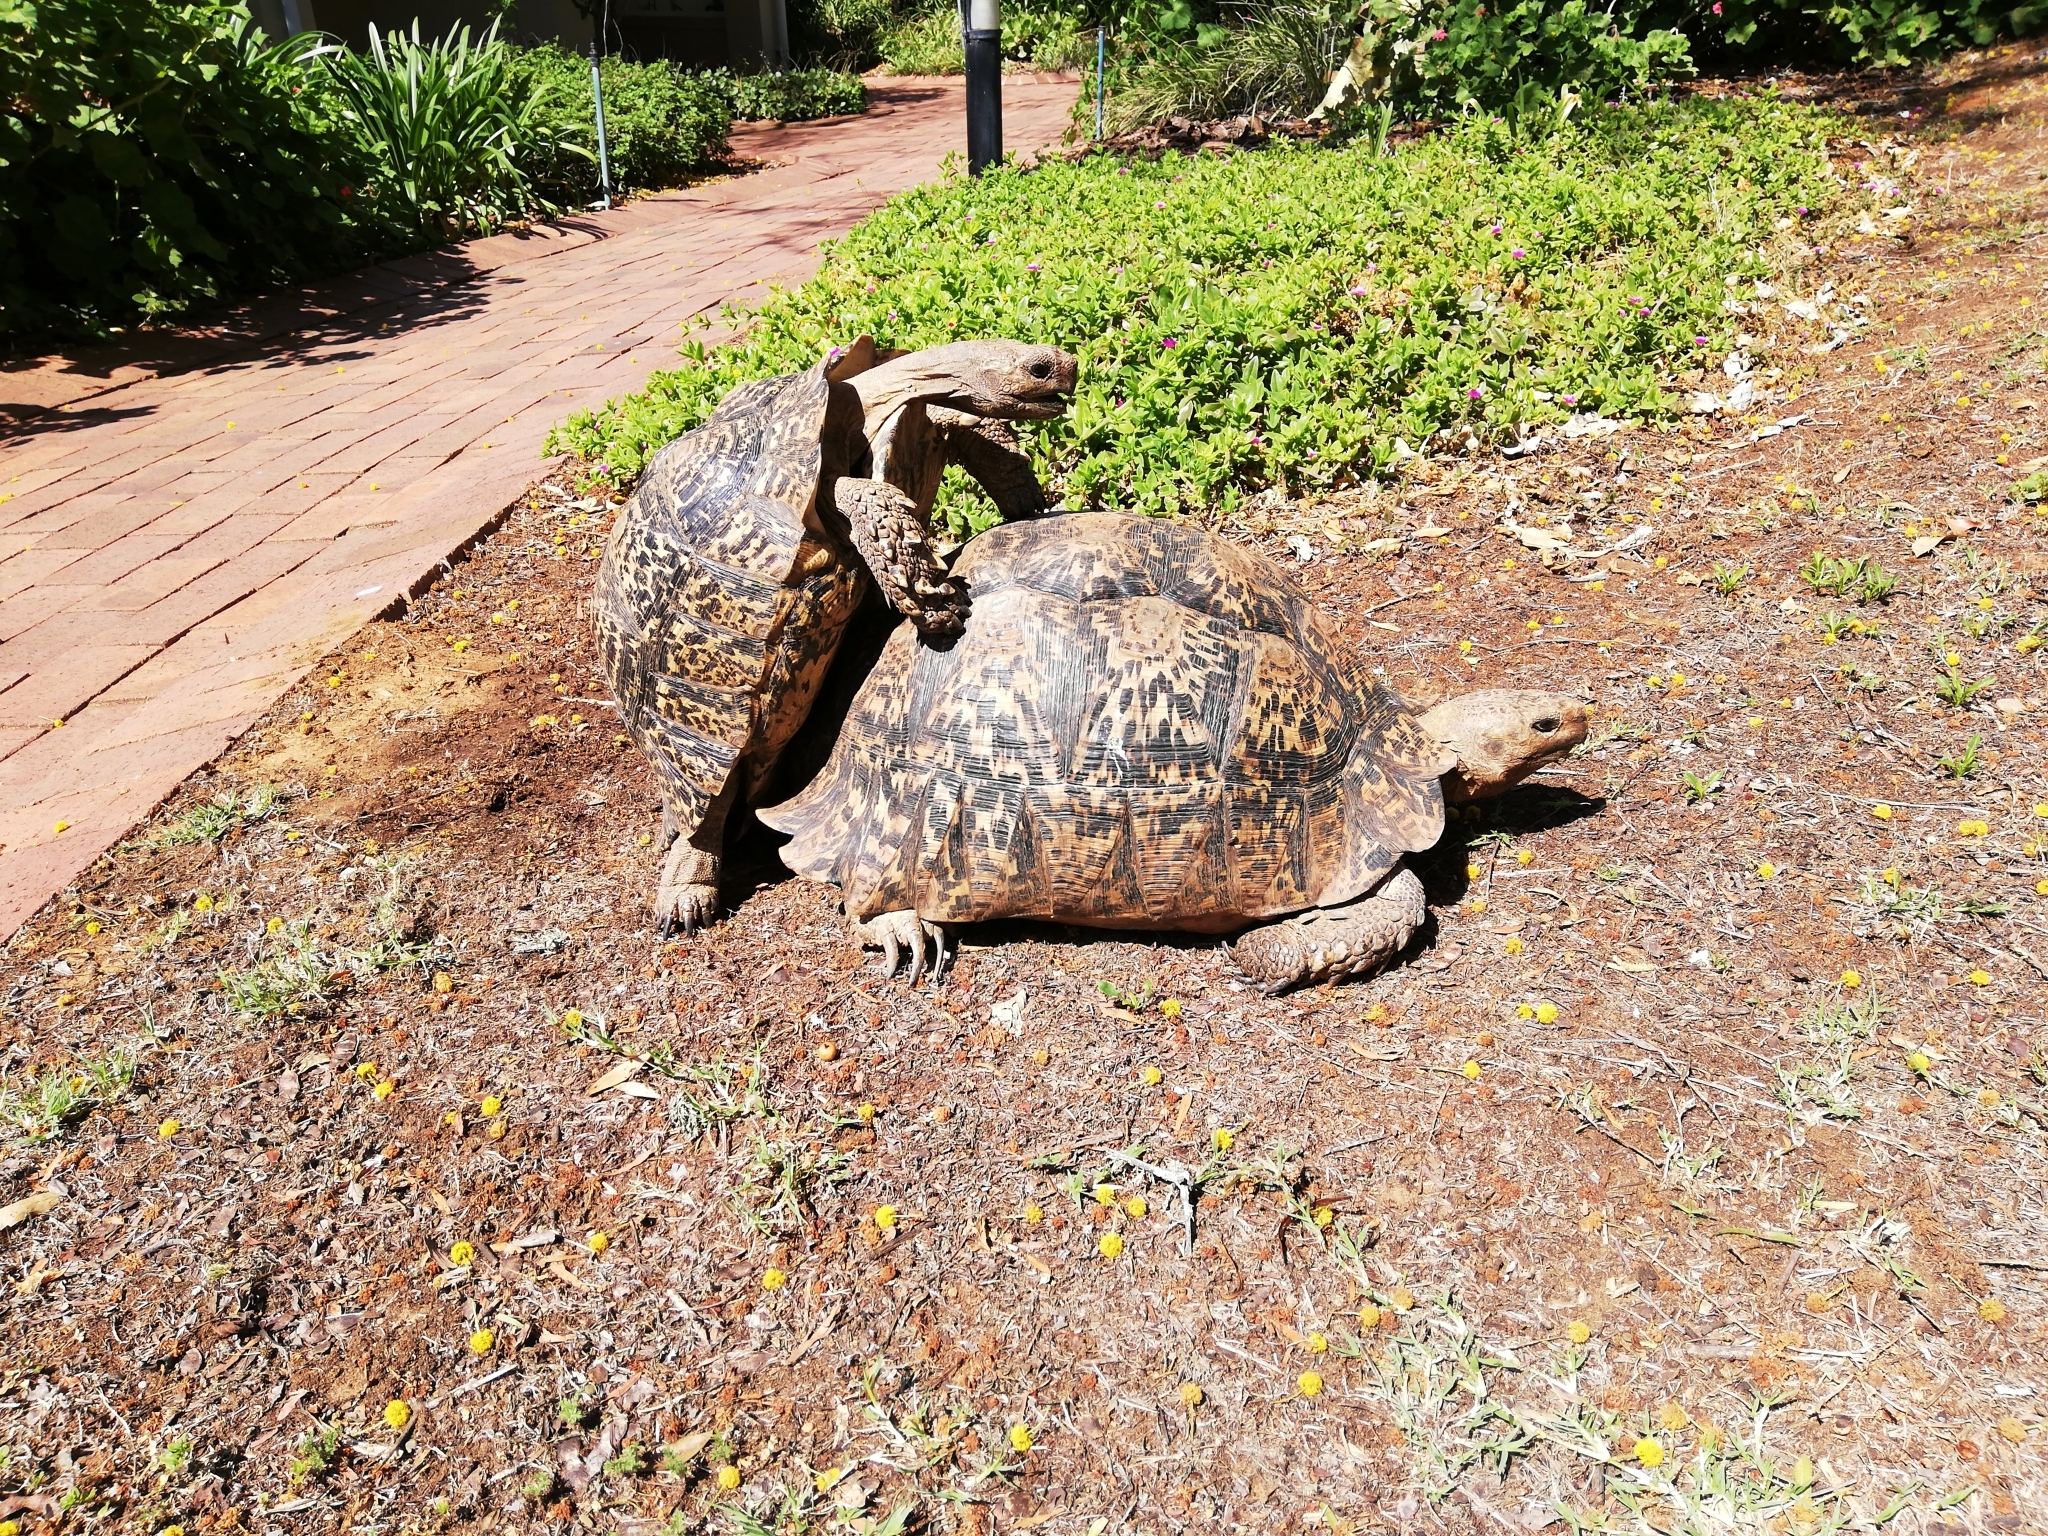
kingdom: Animalia
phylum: Chordata
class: Testudines
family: Testudinidae
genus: Stigmochelys
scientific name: Stigmochelys pardalis
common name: Leopard tortoise
